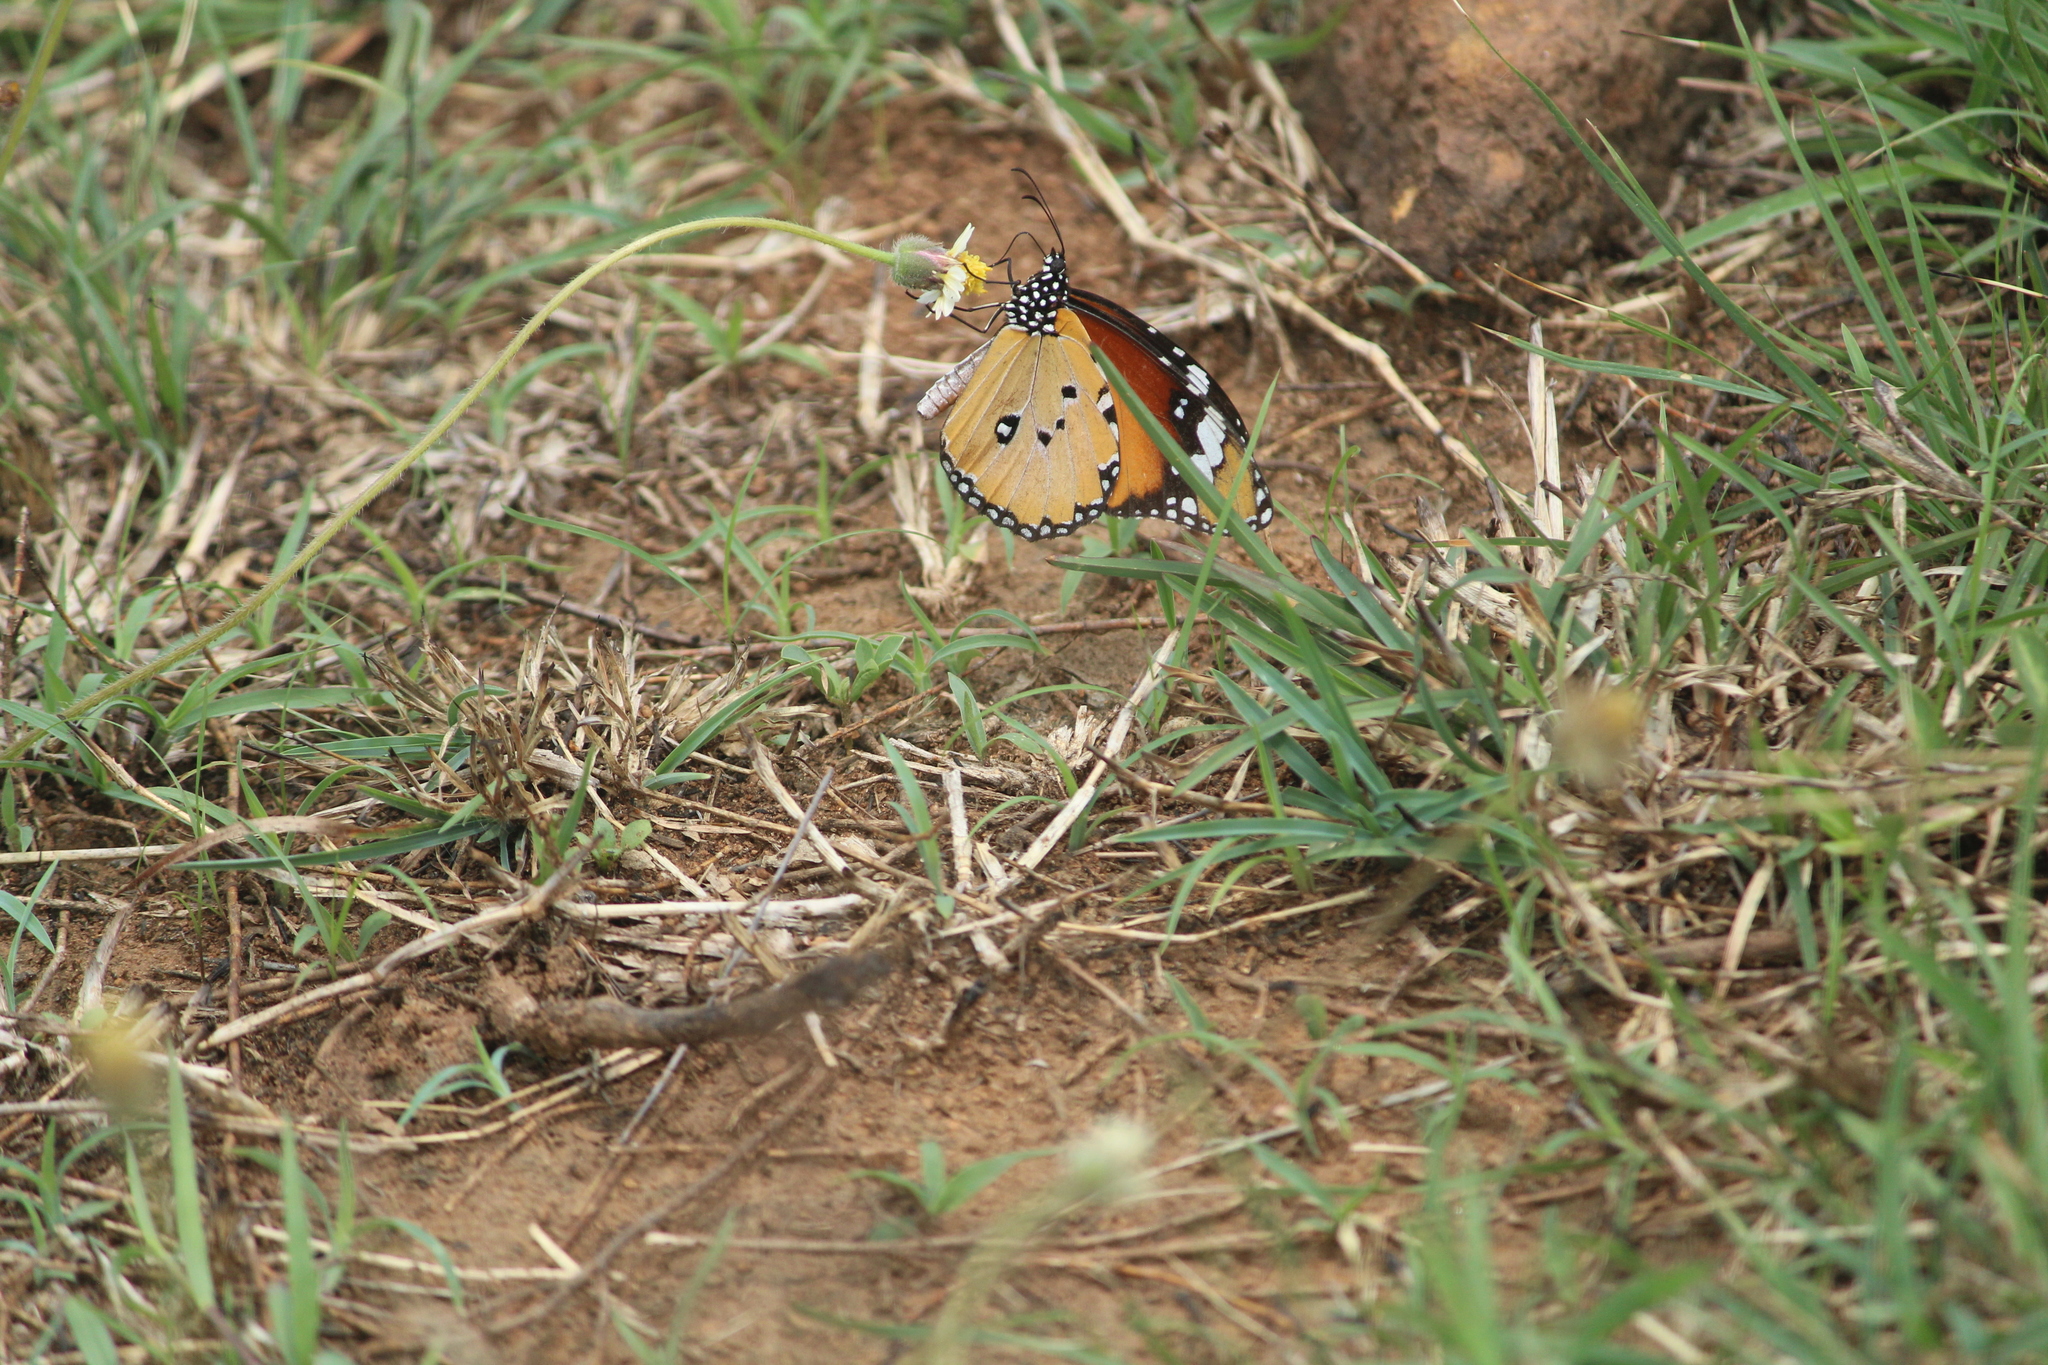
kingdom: Animalia
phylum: Arthropoda
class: Insecta
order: Lepidoptera
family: Nymphalidae
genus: Danaus
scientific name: Danaus chrysippus
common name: Plain tiger
